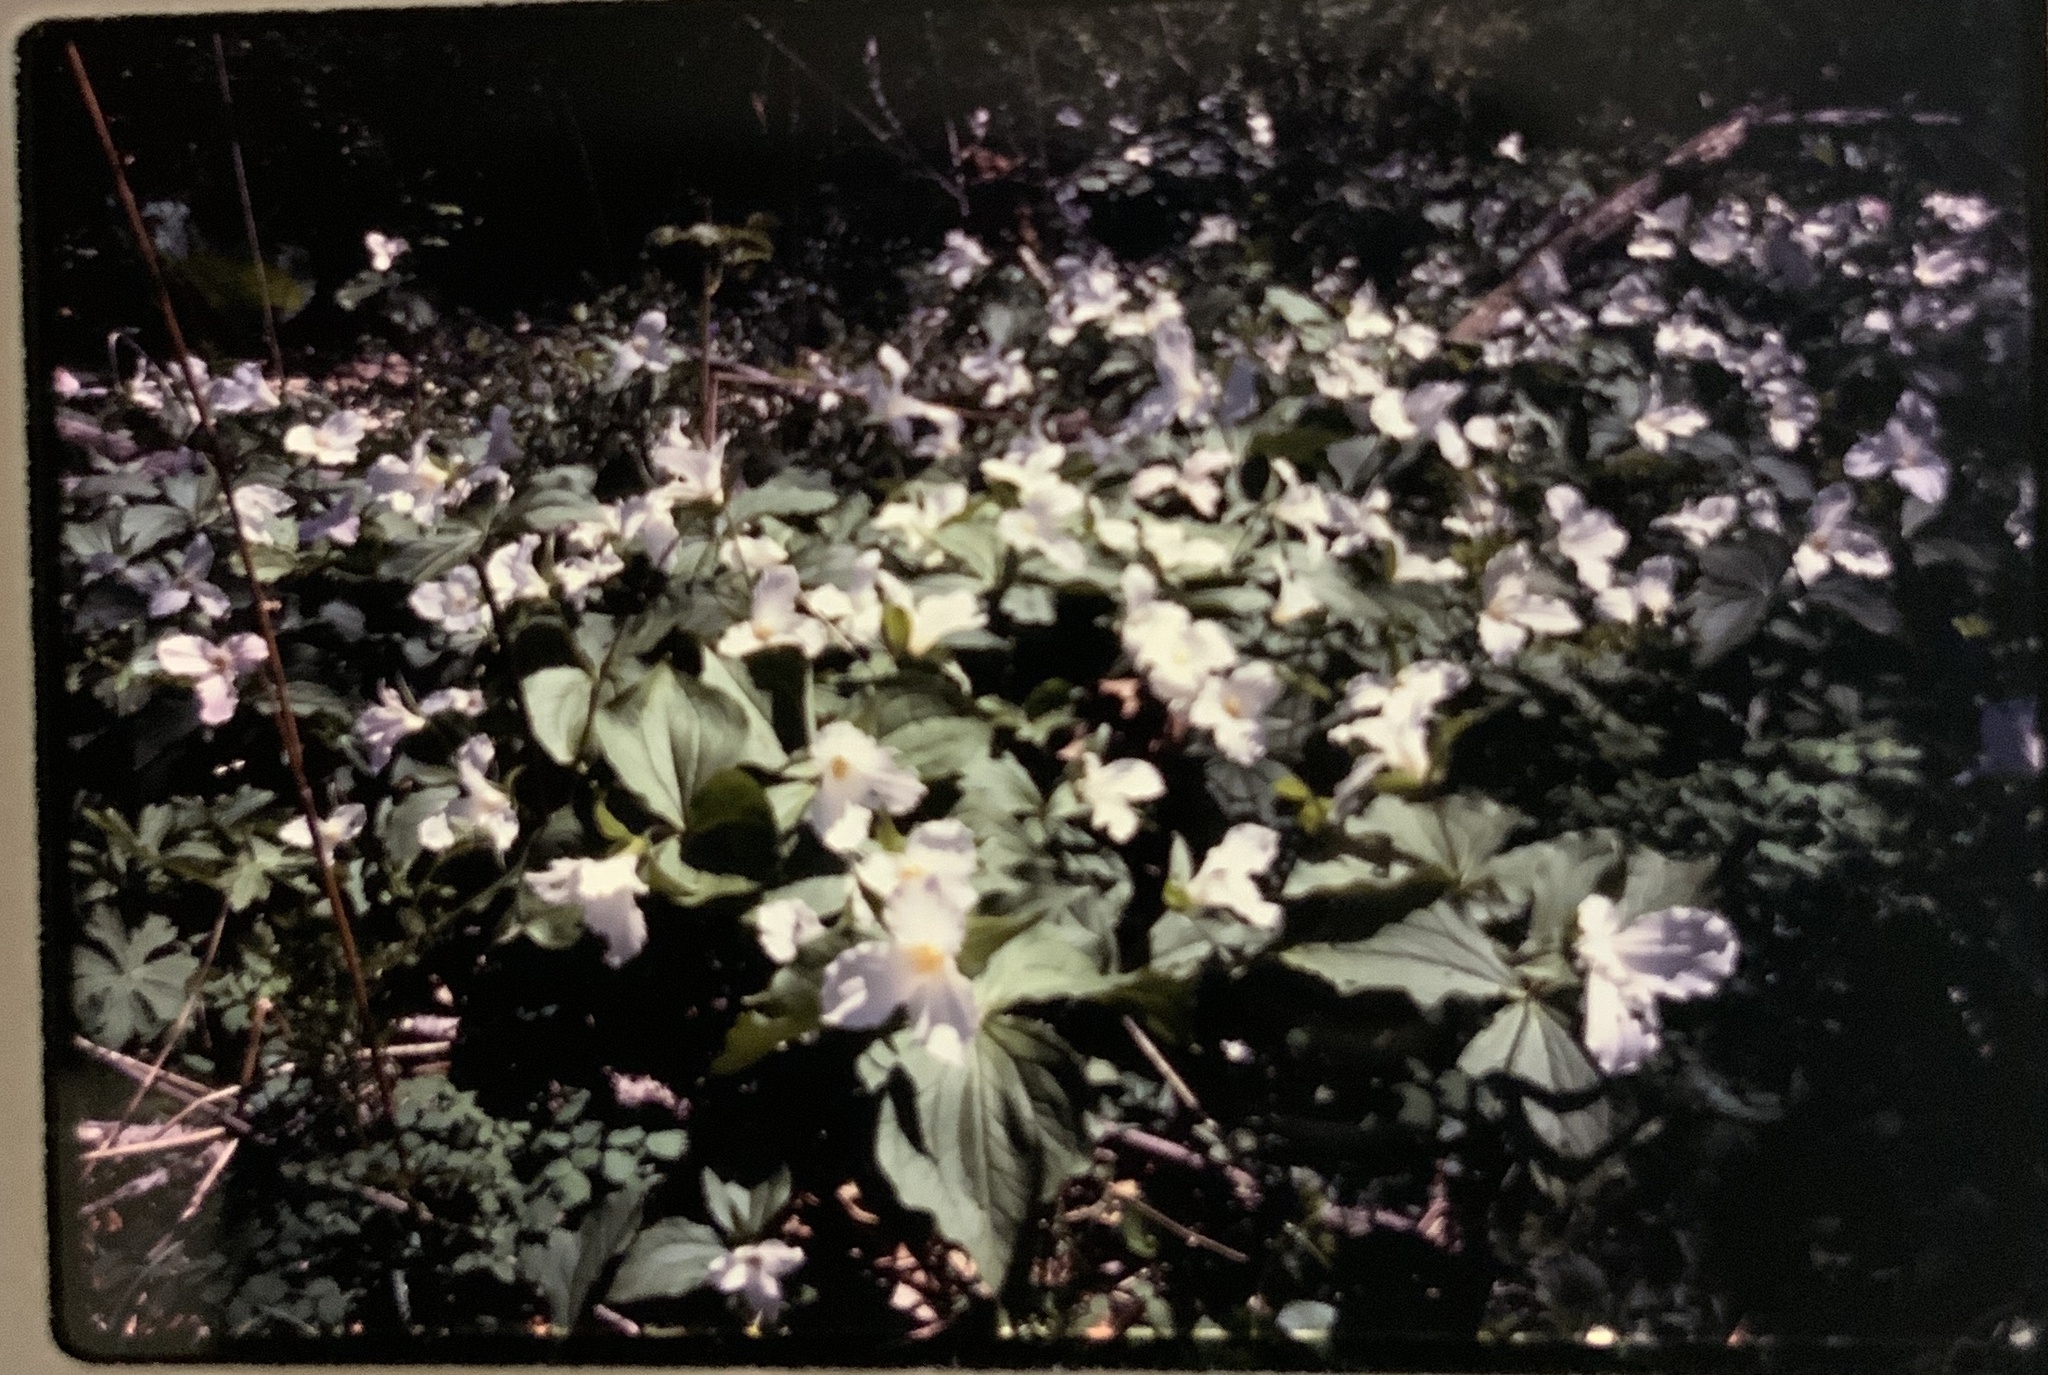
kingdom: Plantae
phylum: Tracheophyta
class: Liliopsida
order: Liliales
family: Melanthiaceae
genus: Trillium
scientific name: Trillium grandiflorum
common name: Great white trillium
